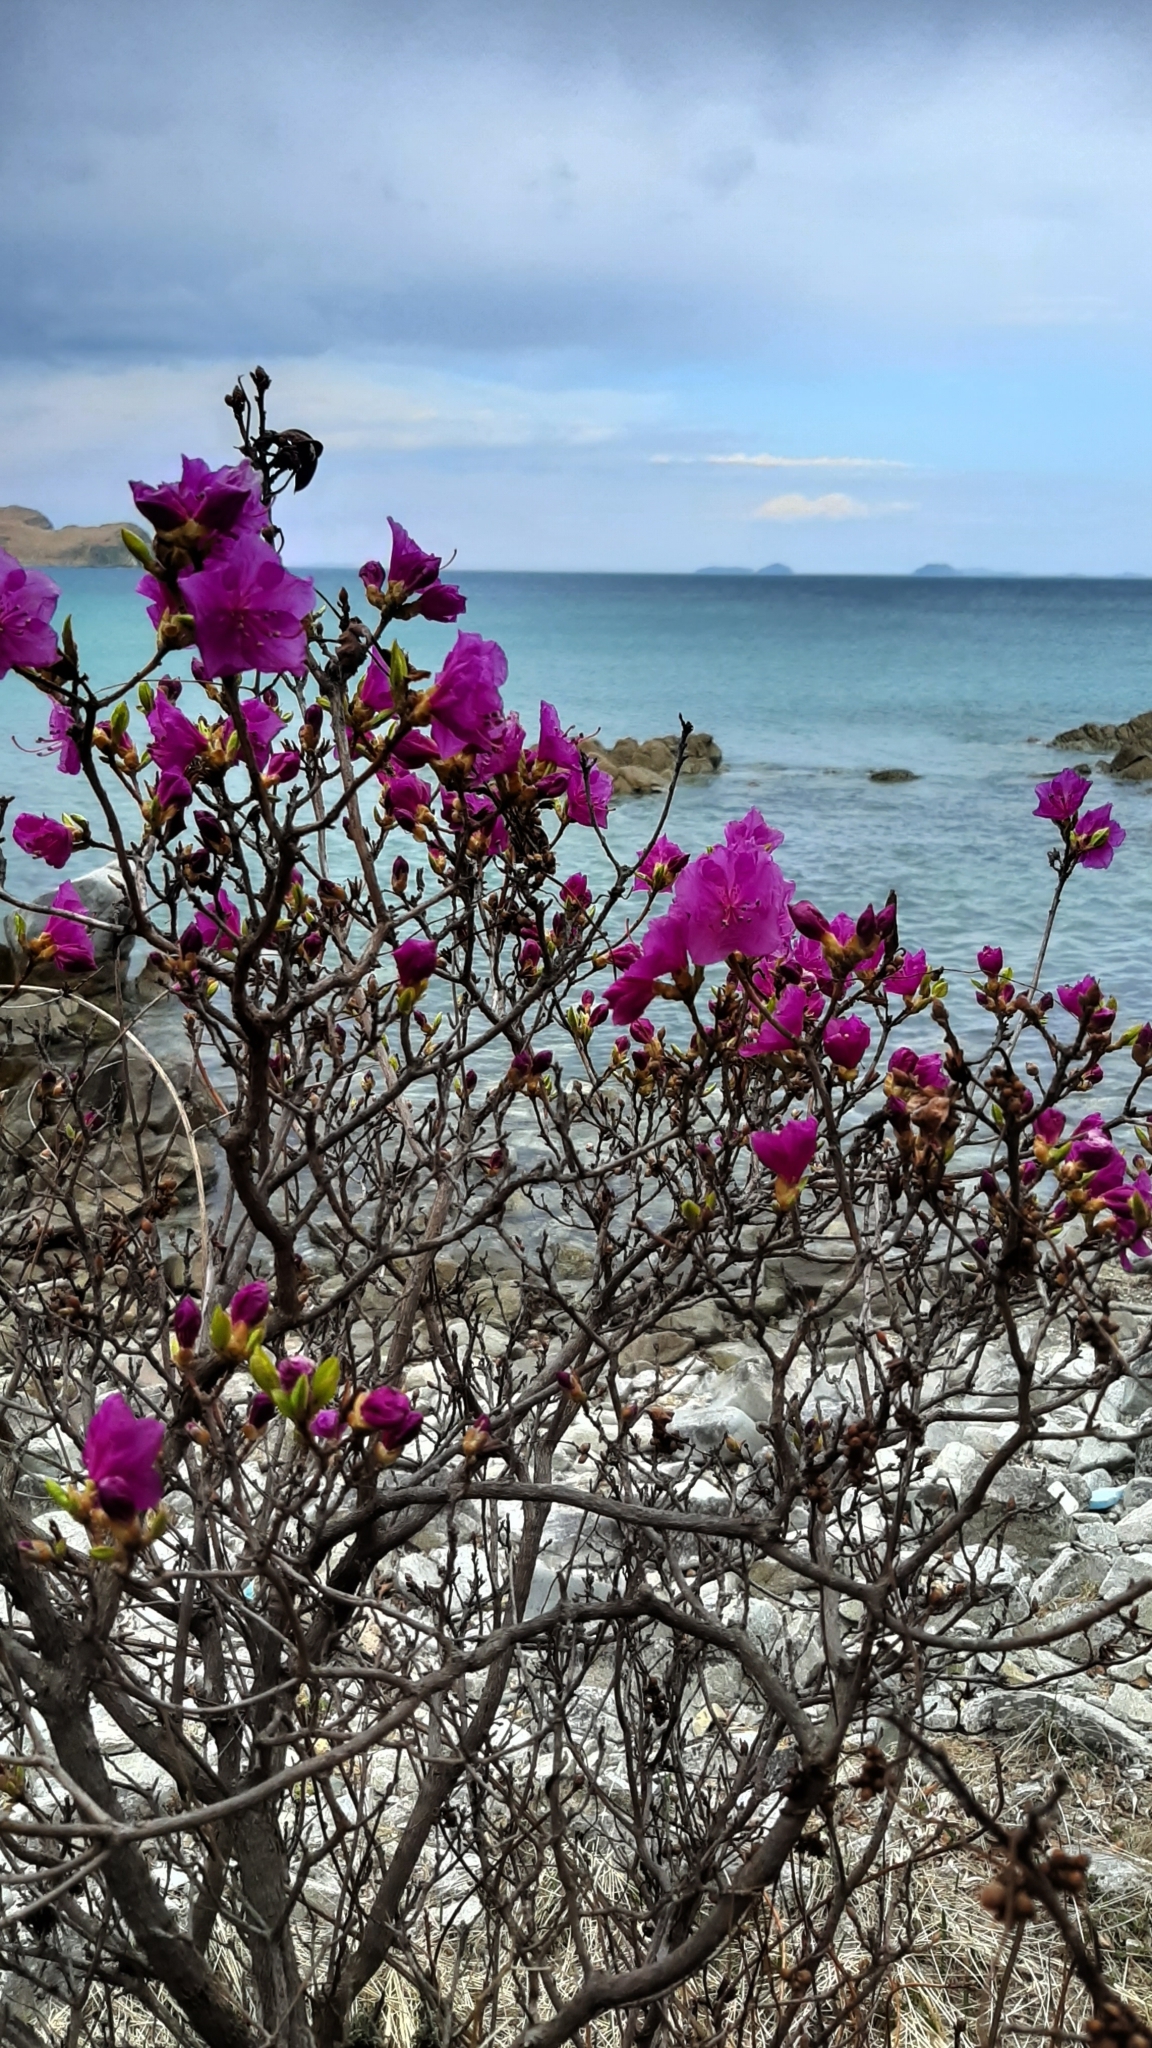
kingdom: Plantae
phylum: Tracheophyta
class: Magnoliopsida
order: Ericales
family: Ericaceae
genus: Rhododendron
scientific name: Rhododendron mucronulatum
